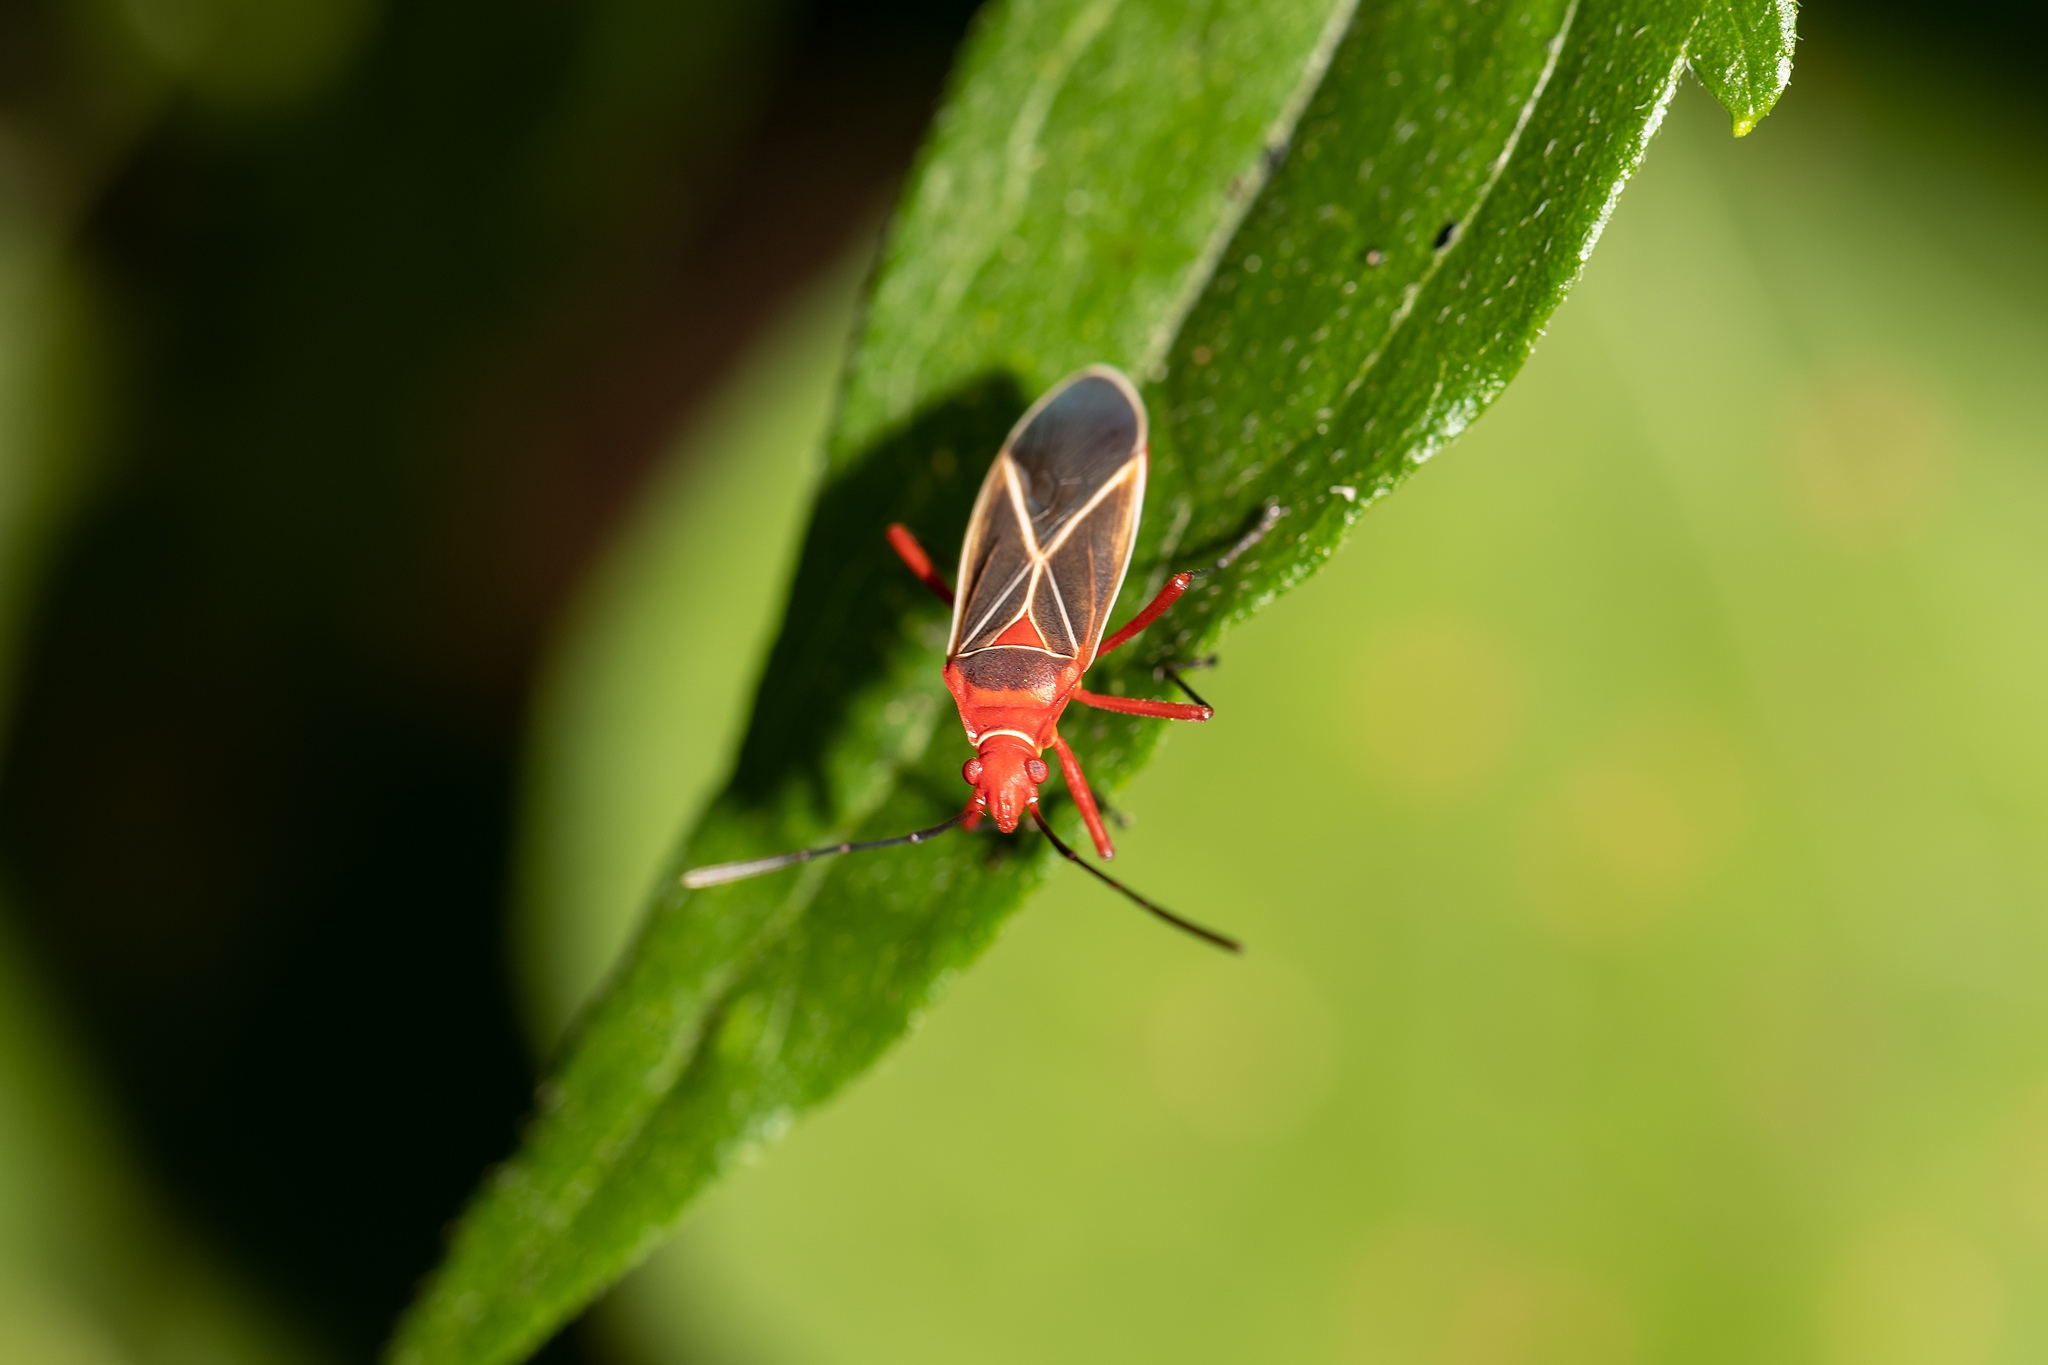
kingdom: Animalia
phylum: Arthropoda
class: Insecta
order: Hemiptera
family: Pyrrhocoridae
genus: Dysdercus
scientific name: Dysdercus suturellus
